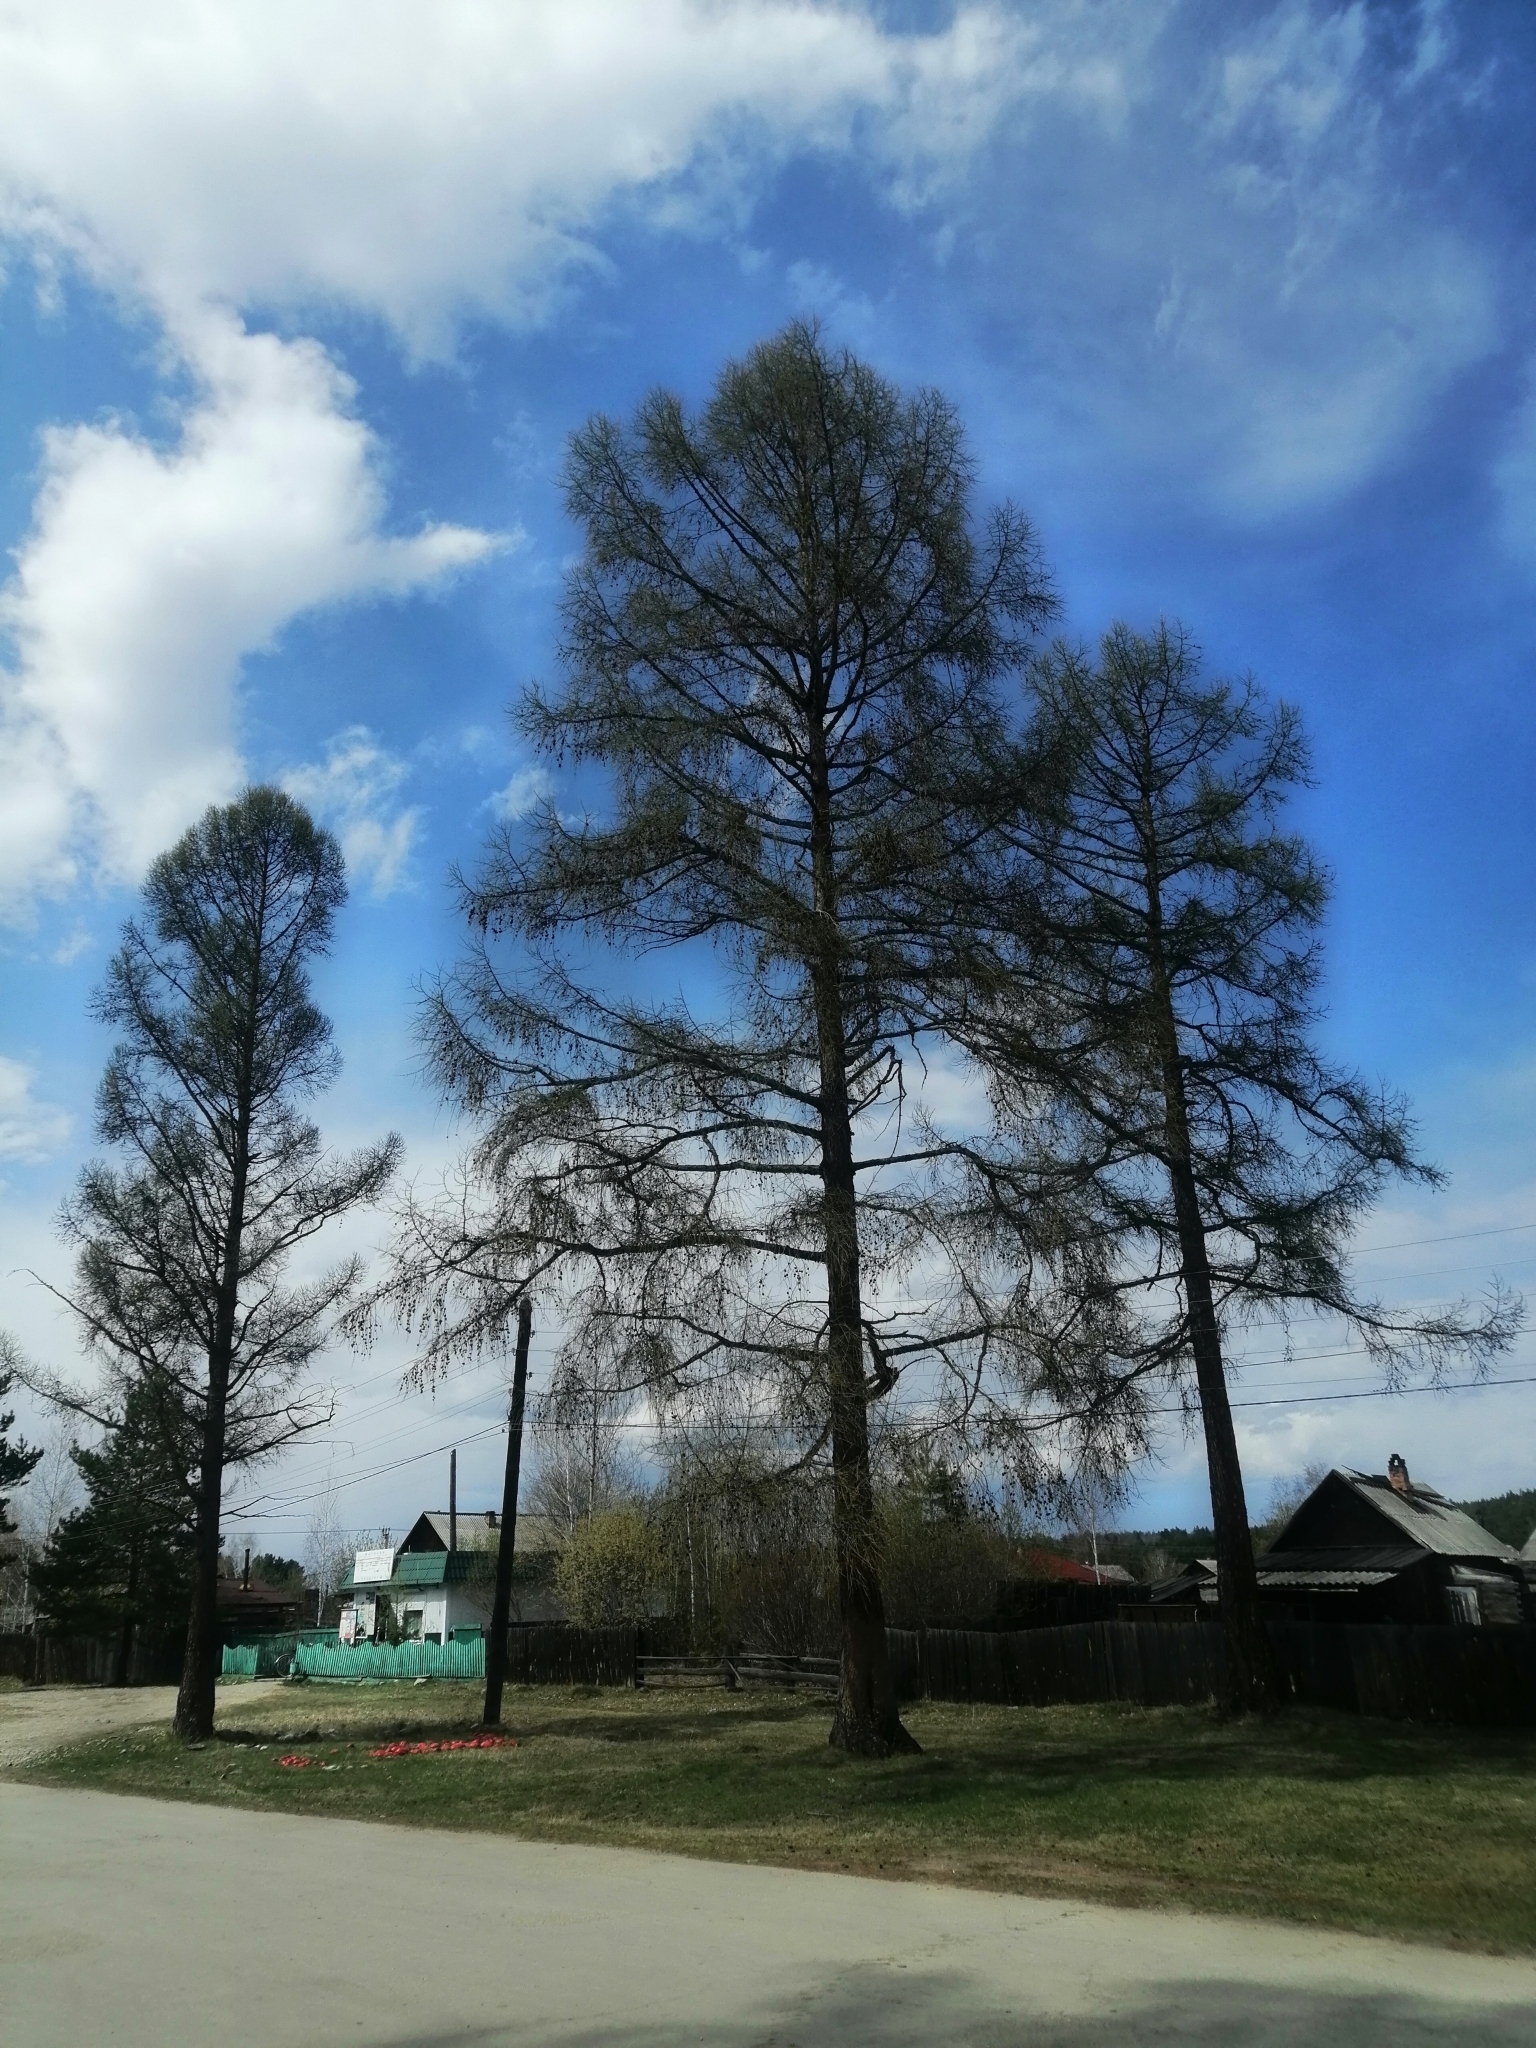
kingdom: Plantae
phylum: Tracheophyta
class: Pinopsida
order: Pinales
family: Pinaceae
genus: Larix
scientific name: Larix sibirica
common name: Siberian larch
